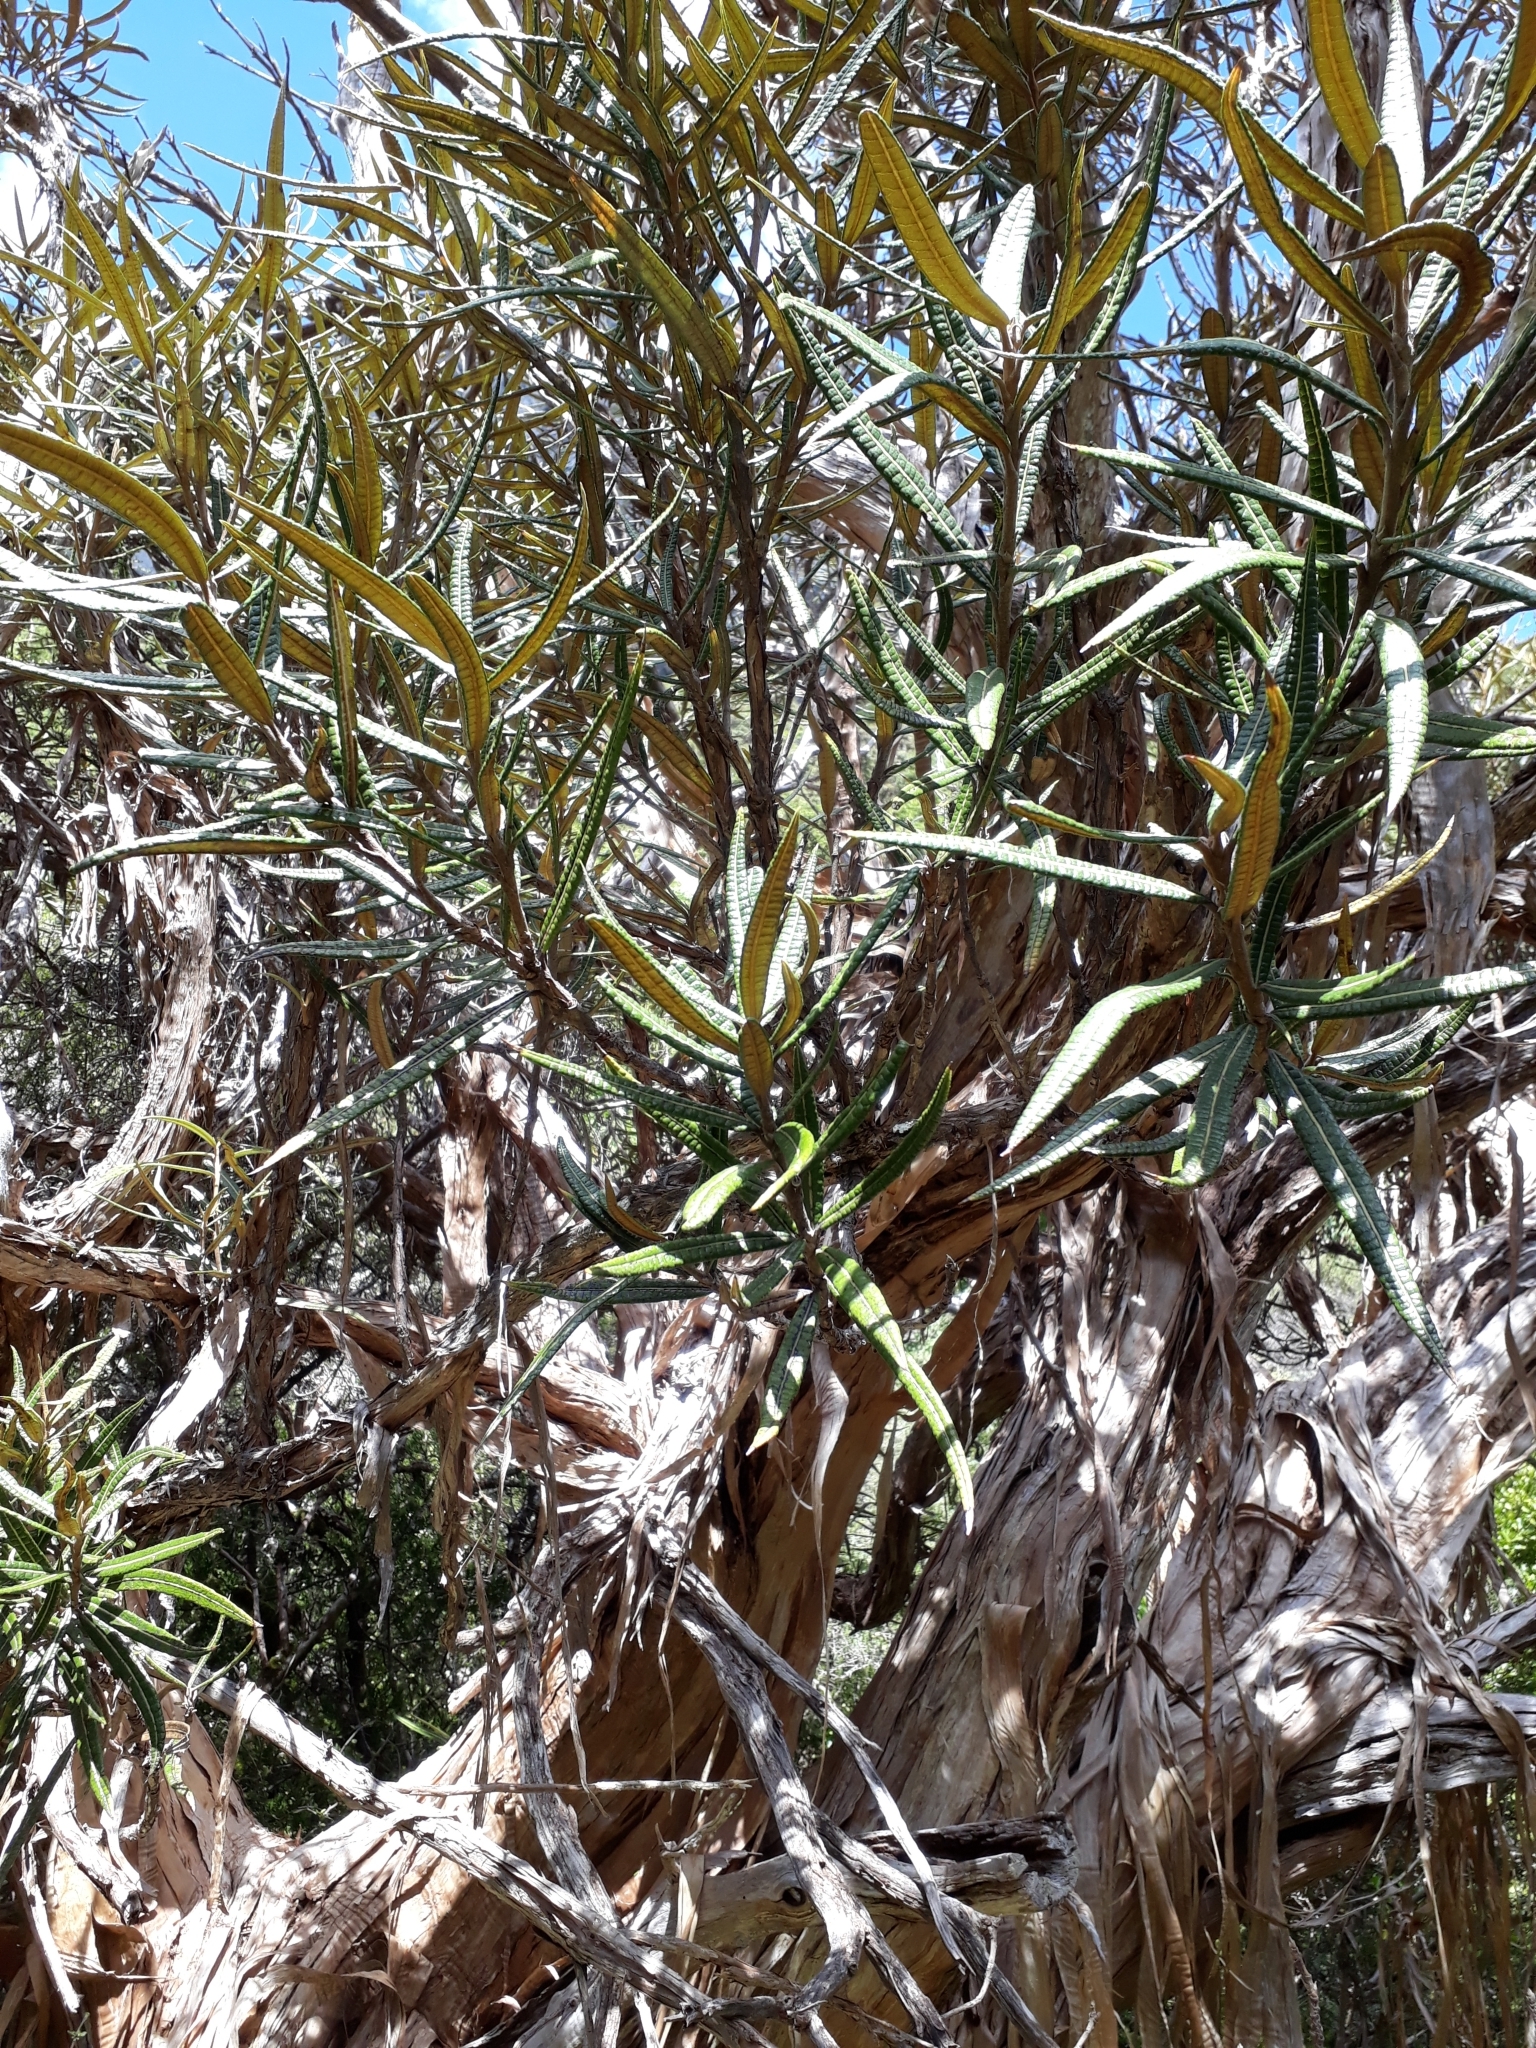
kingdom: Plantae
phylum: Tracheophyta
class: Magnoliopsida
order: Asterales
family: Asteraceae
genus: Olearia
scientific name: Olearia lacunosa
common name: Lancewood tree daisy
